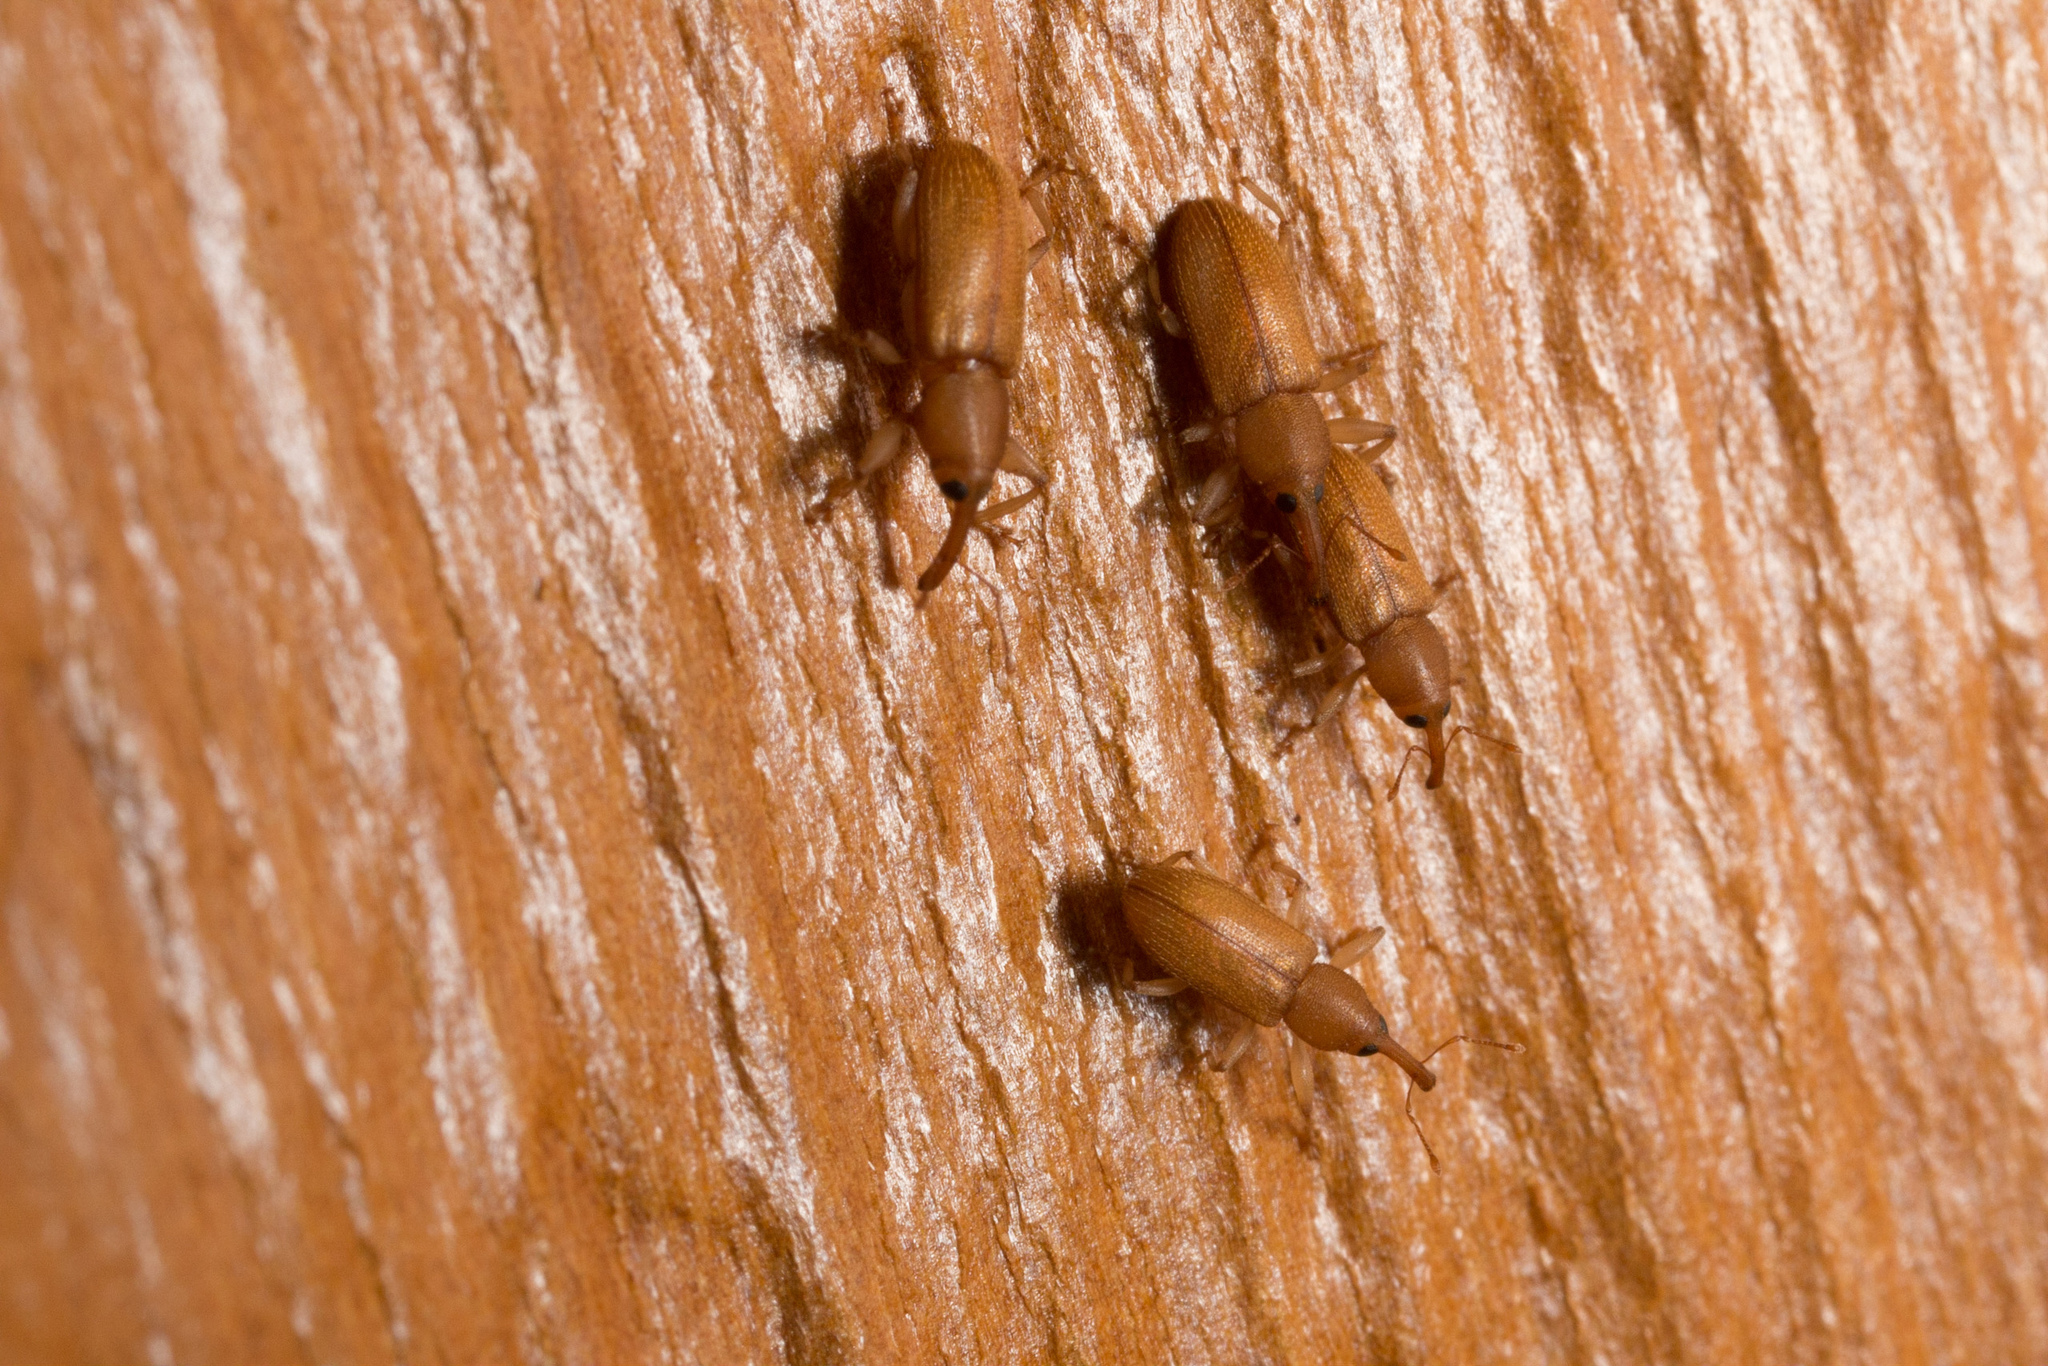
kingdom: Animalia
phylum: Arthropoda
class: Insecta
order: Coleoptera
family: Curculionidae
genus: Celetes
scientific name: Celetes impar
